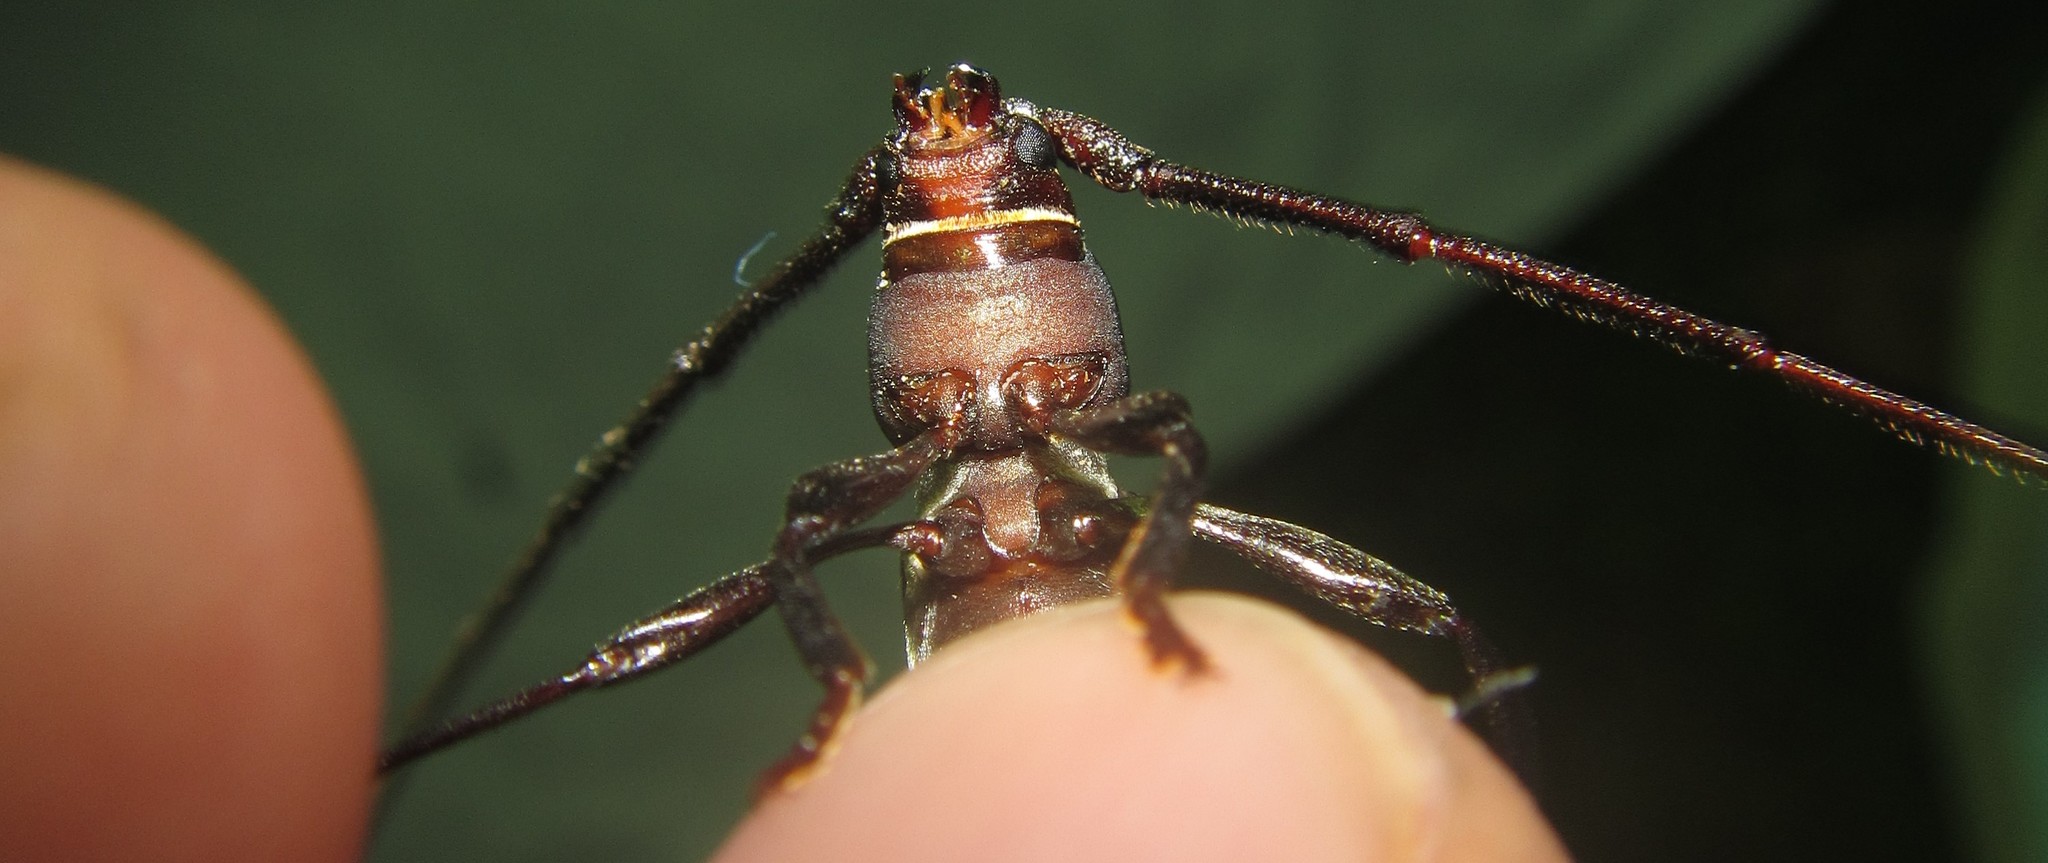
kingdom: Animalia
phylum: Arthropoda
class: Insecta
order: Coleoptera
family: Cerambycidae
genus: Xystrocera
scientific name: Xystrocera dispar
